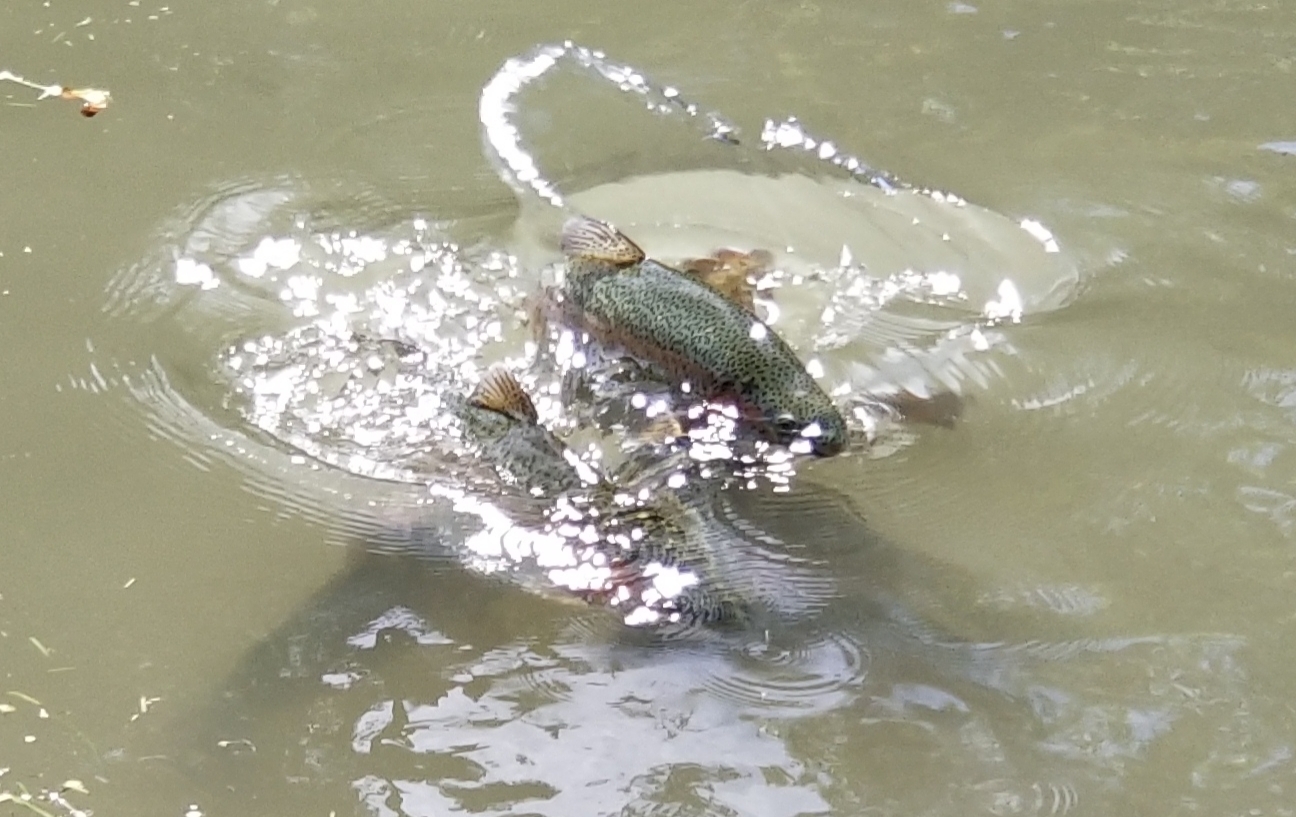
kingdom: Animalia
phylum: Chordata
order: Salmoniformes
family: Salmonidae
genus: Oncorhynchus
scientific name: Oncorhynchus mykiss
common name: Rainbow trout
